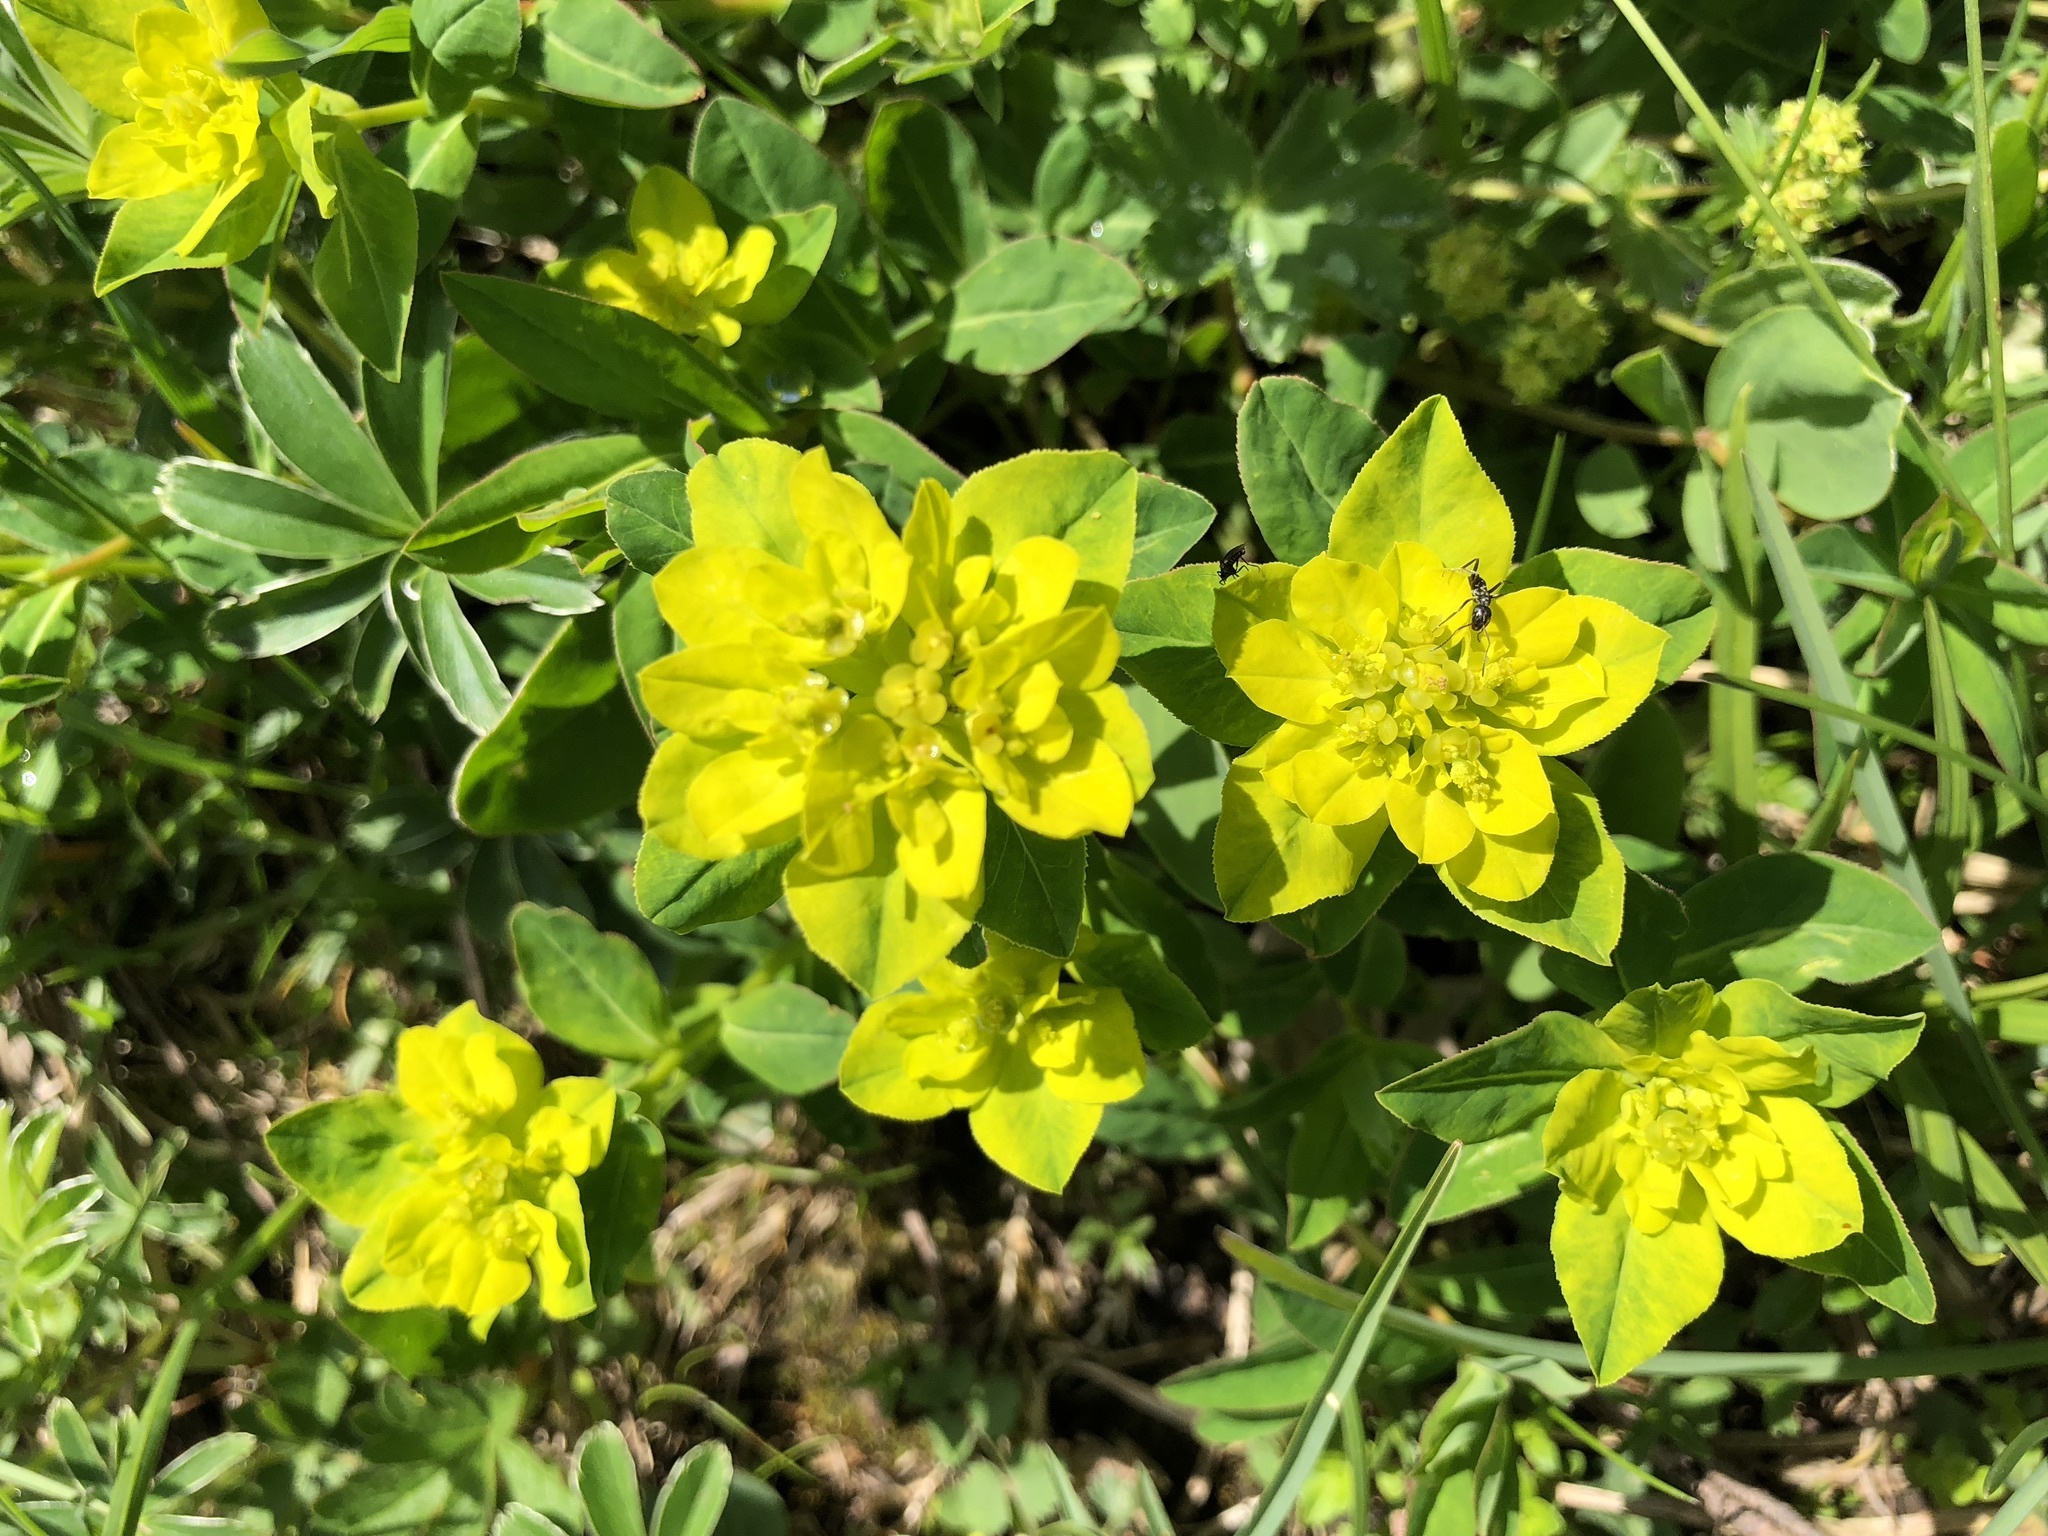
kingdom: Plantae
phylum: Tracheophyta
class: Magnoliopsida
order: Malpighiales
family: Euphorbiaceae
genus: Euphorbia
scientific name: Euphorbia verrucosa
